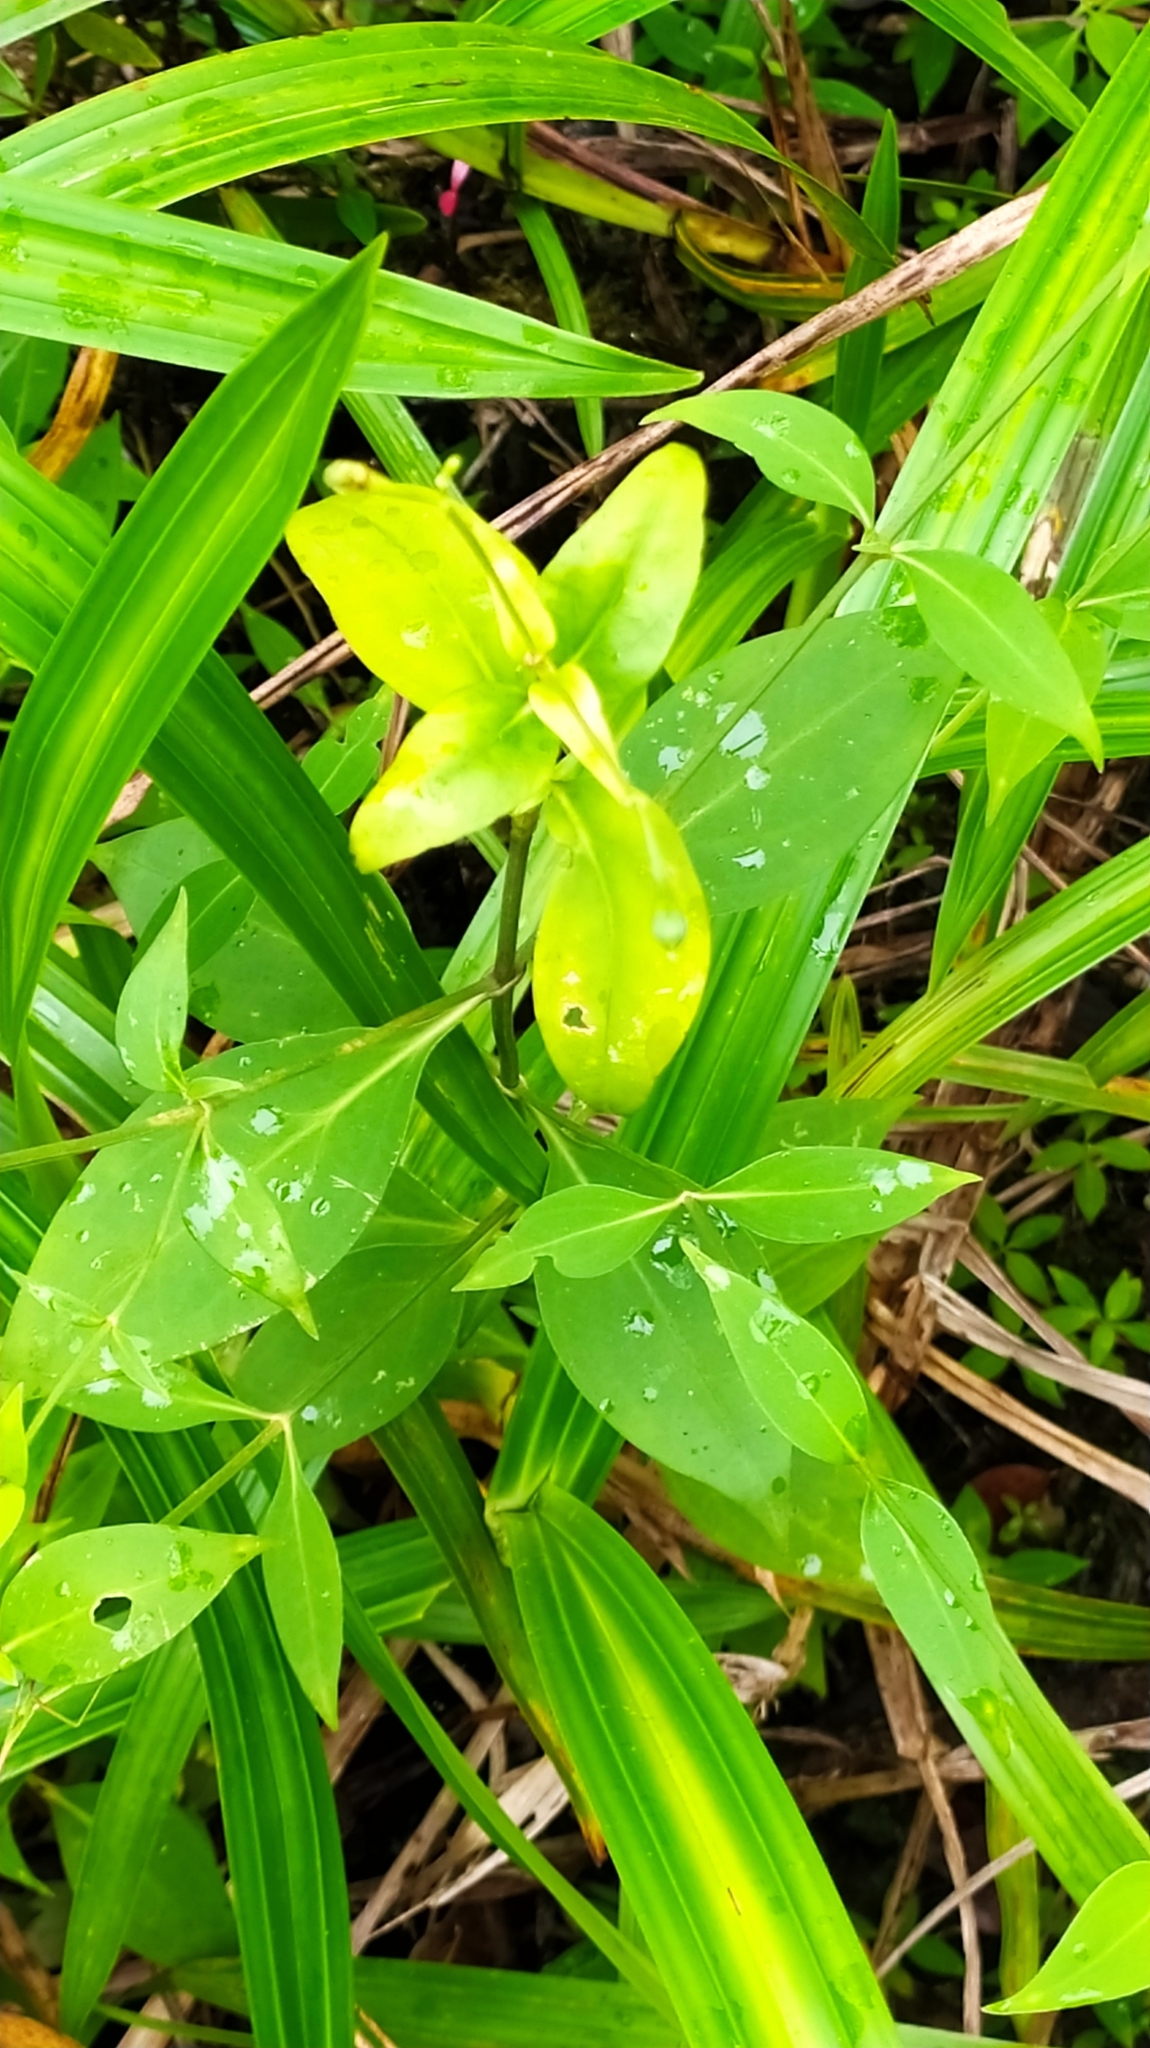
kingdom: Plantae
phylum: Tracheophyta
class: Magnoliopsida
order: Gentianales
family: Gentianaceae
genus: Chelonanthus
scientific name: Chelonanthus purpurascens
